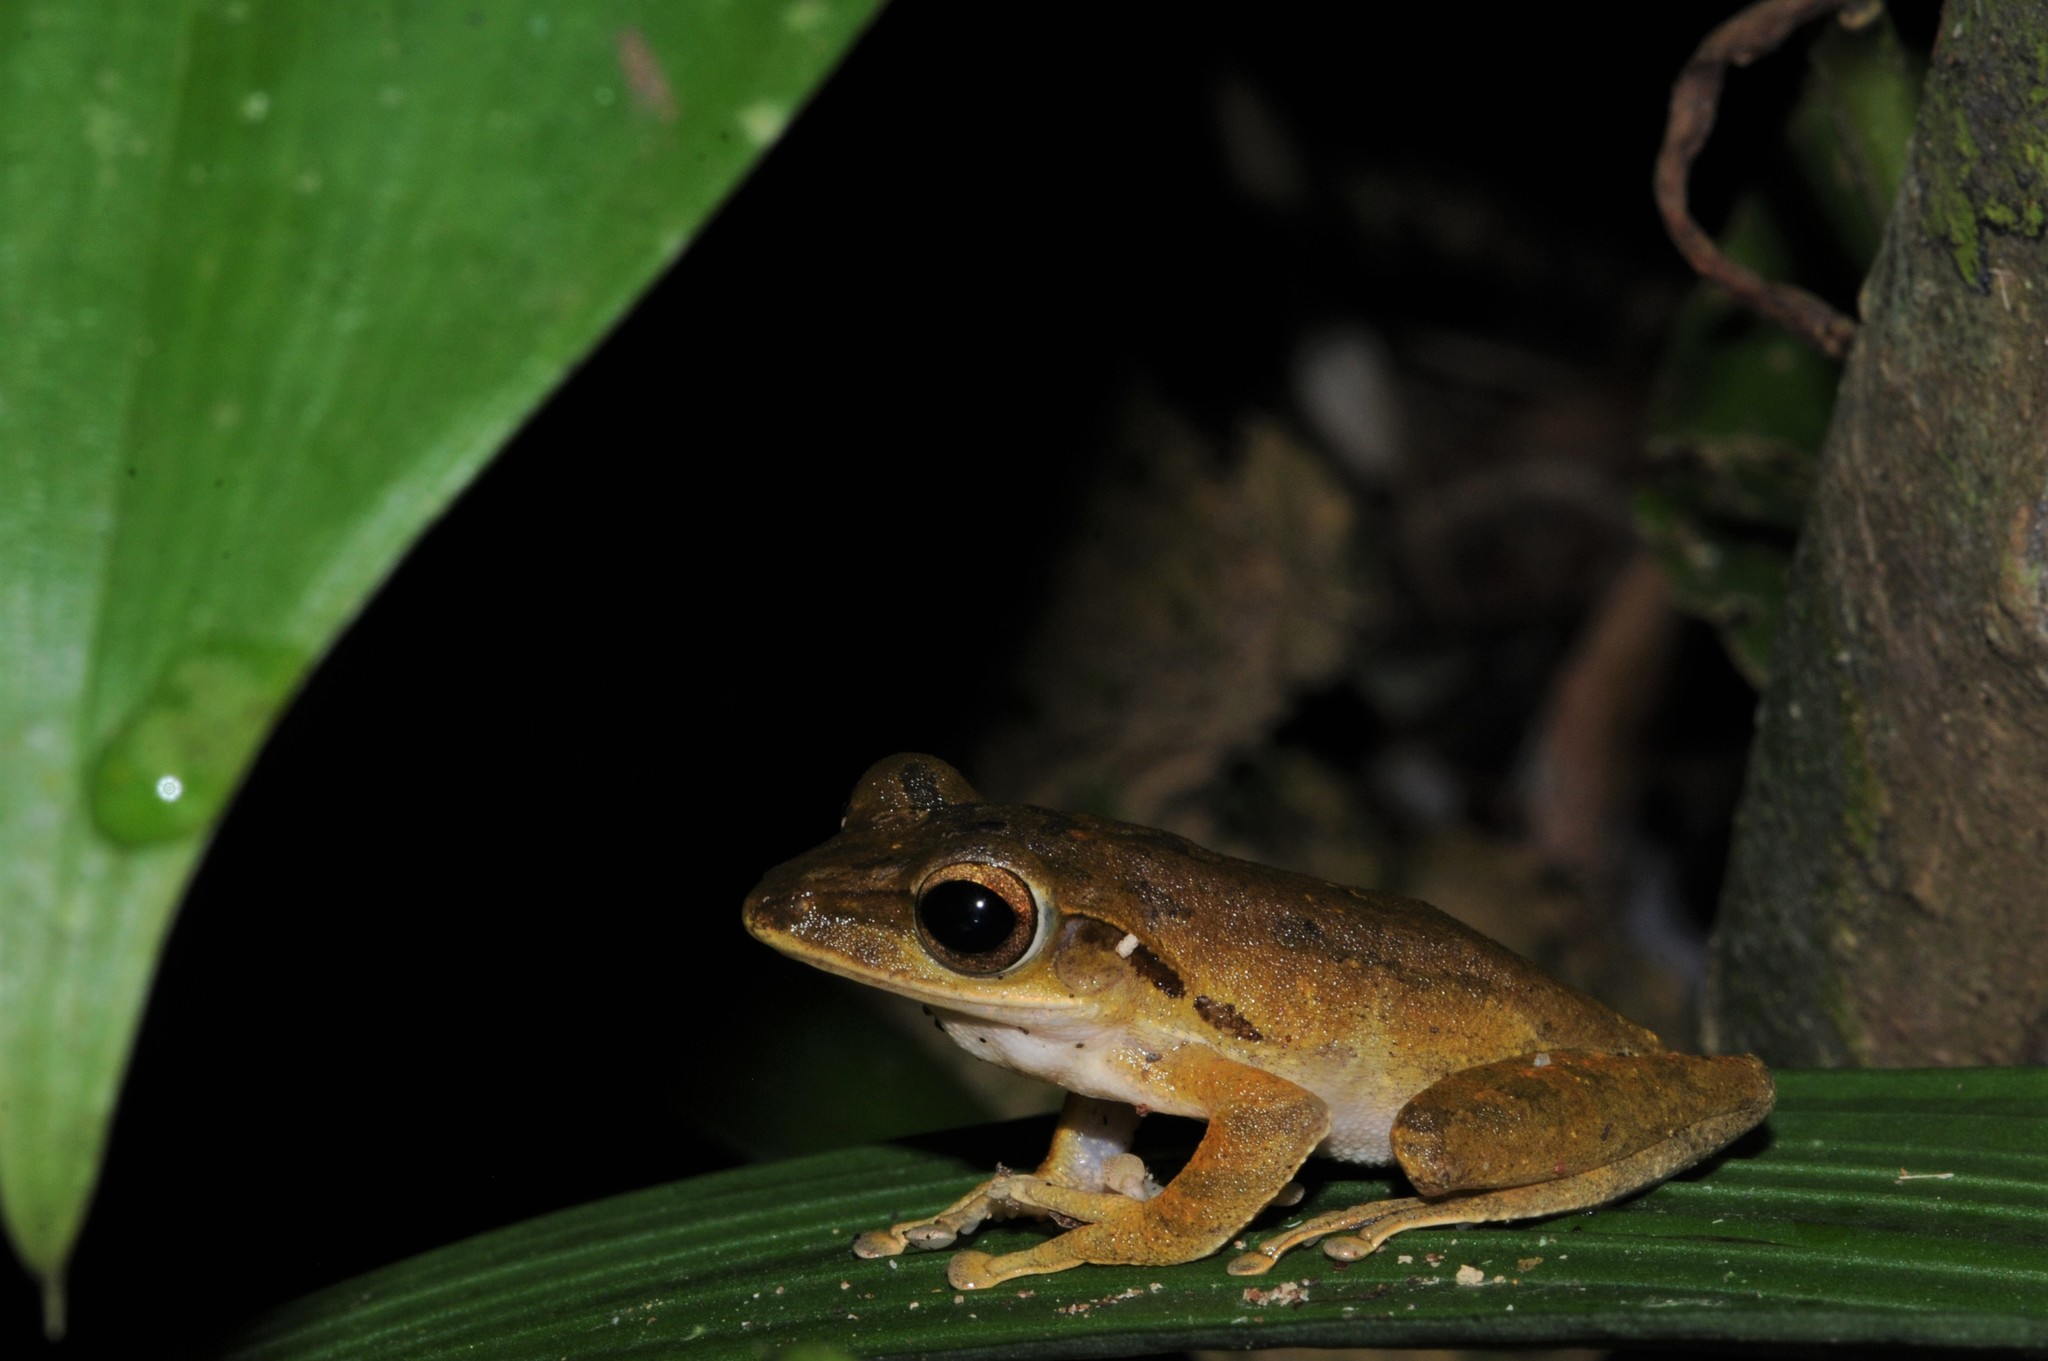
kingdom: Animalia
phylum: Chordata
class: Amphibia
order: Anura
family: Rhacophoridae
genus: Polypedates
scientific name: Polypedates leucomystax
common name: Common tree frog/four-lined tree frog
